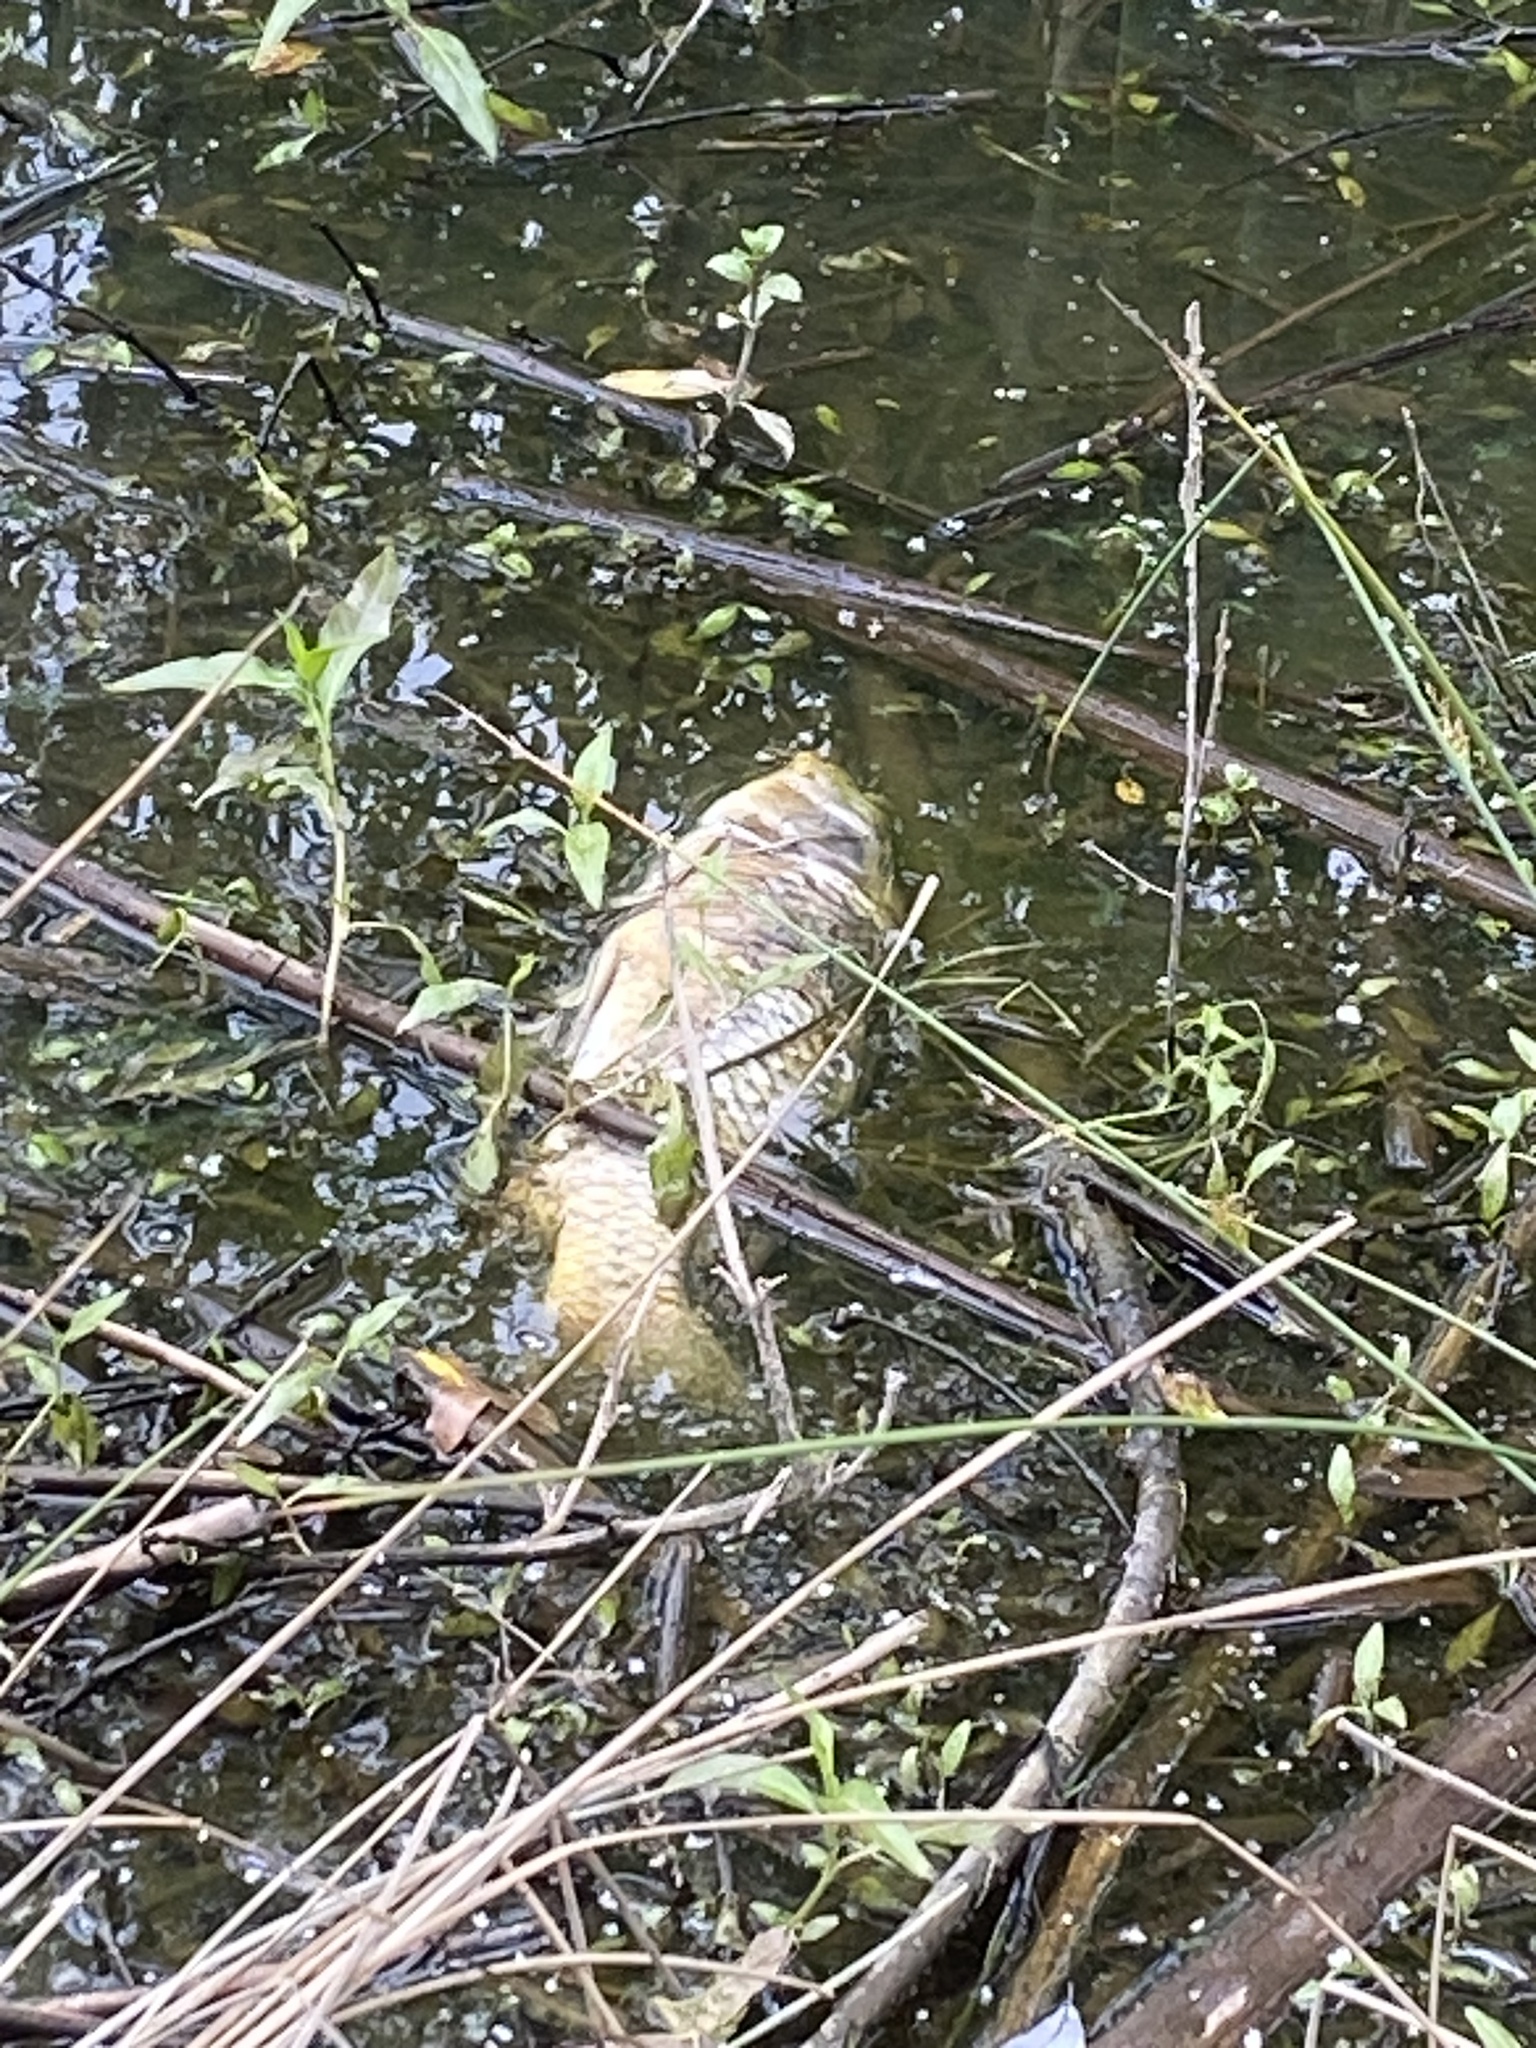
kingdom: Animalia
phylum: Chordata
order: Cypriniformes
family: Cyprinidae
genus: Cyprinus
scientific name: Cyprinus carpio
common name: Common carp
